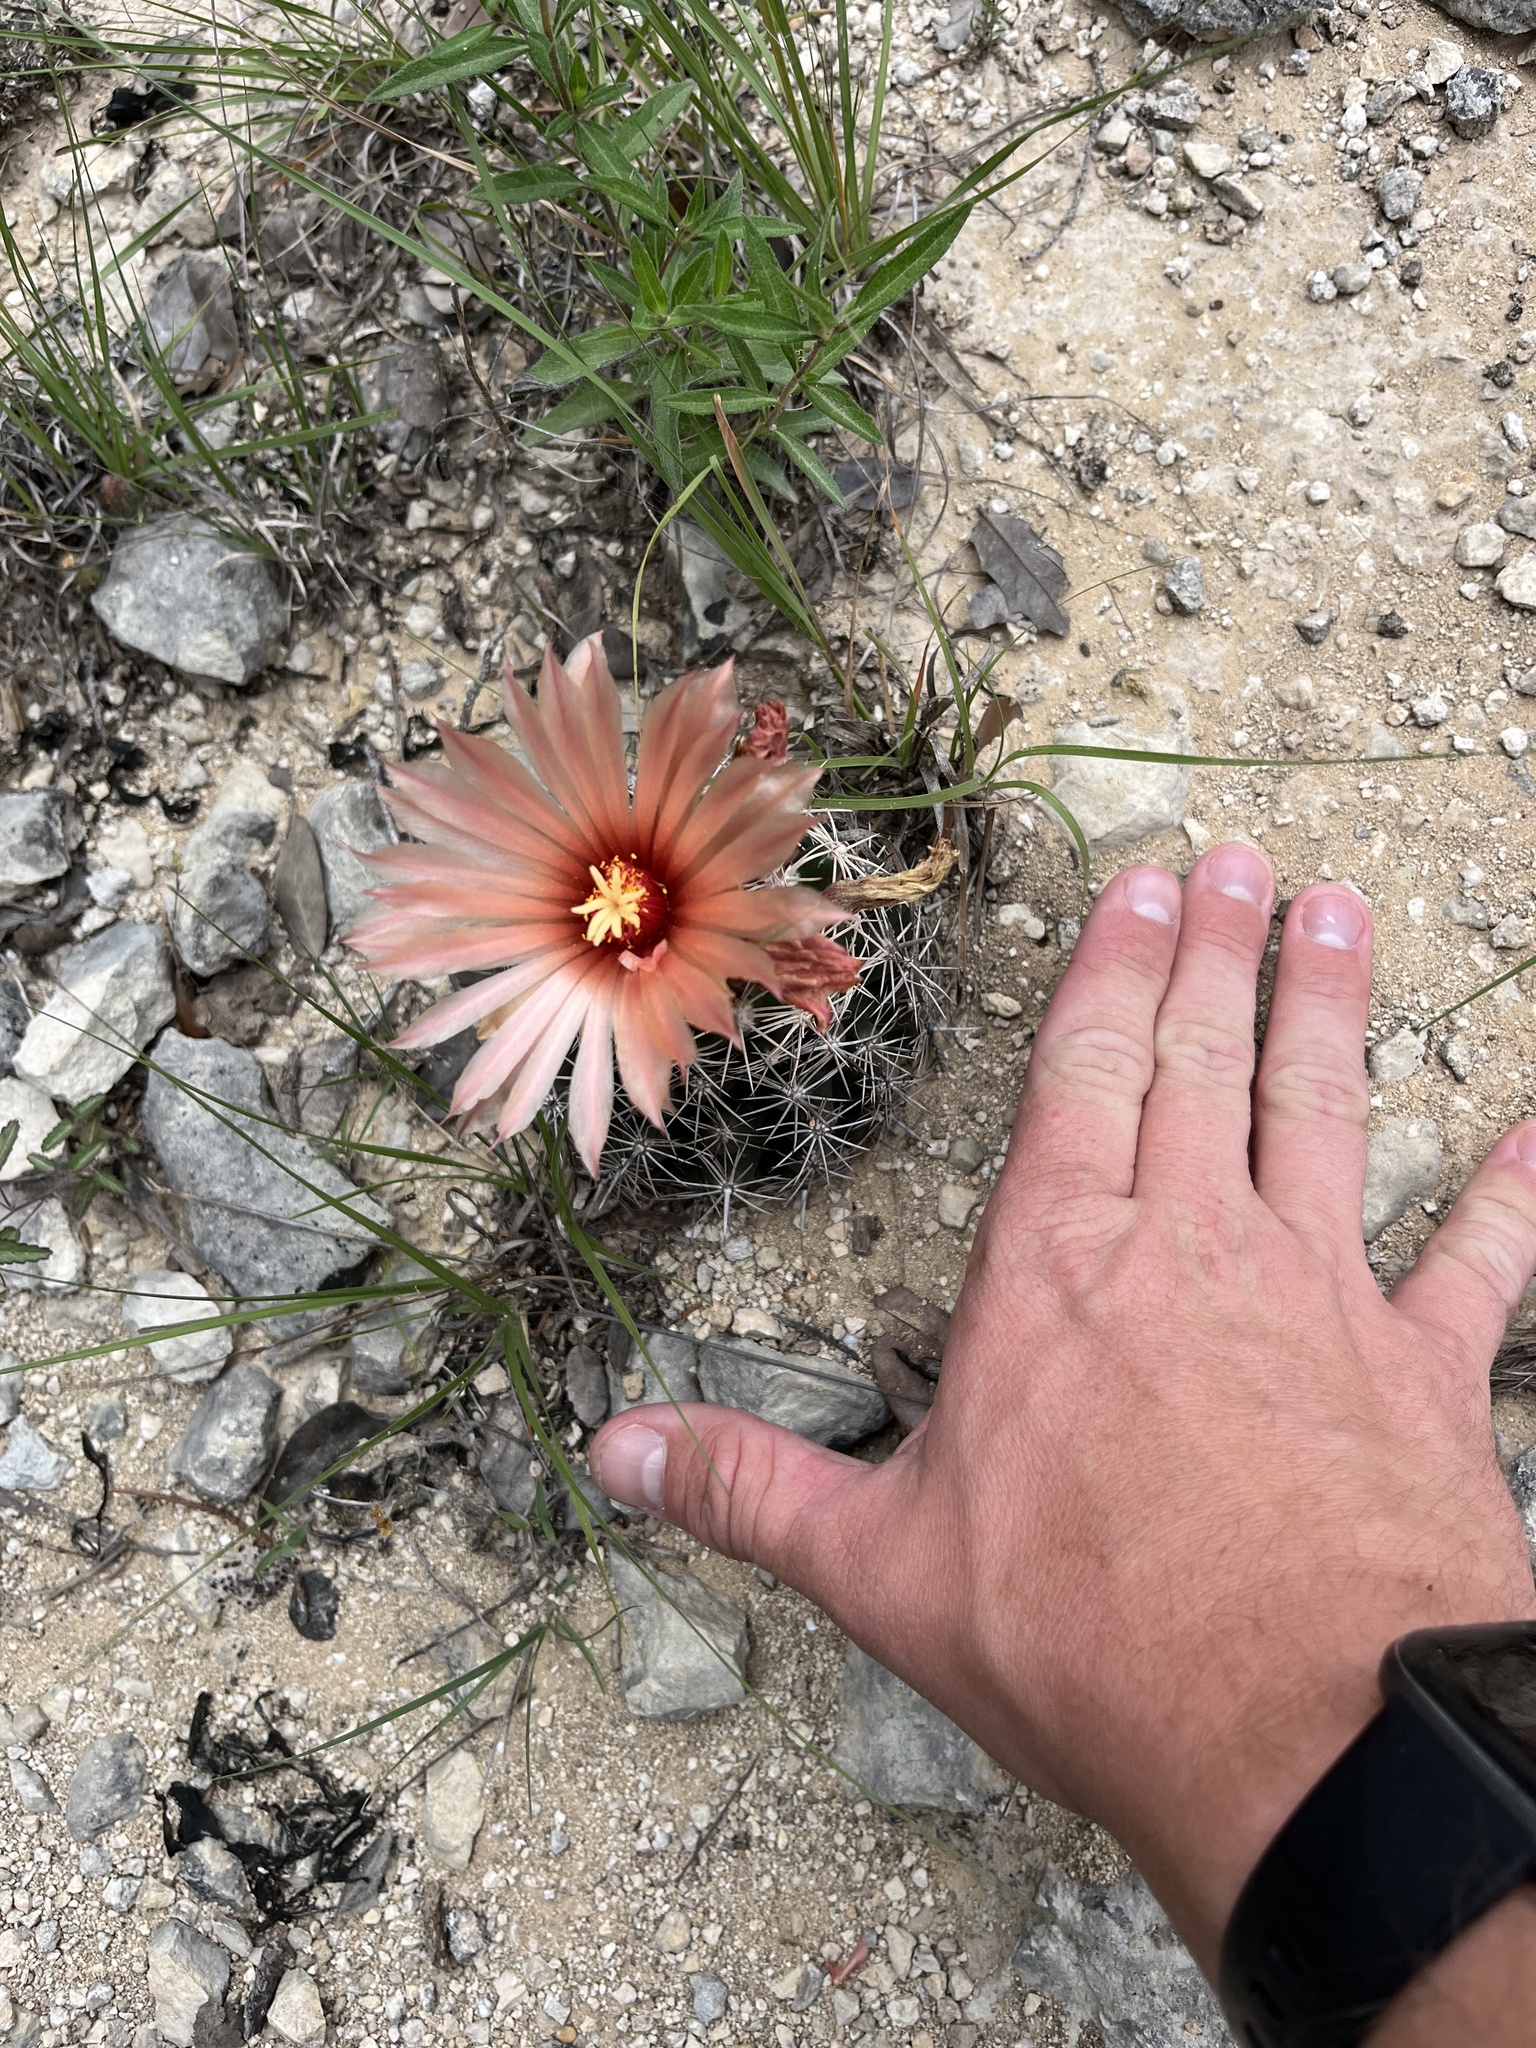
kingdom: Plantae
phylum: Tracheophyta
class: Magnoliopsida
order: Caryophyllales
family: Cactaceae
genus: Coryphantha
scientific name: Coryphantha sulcata
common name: Finger cactus
